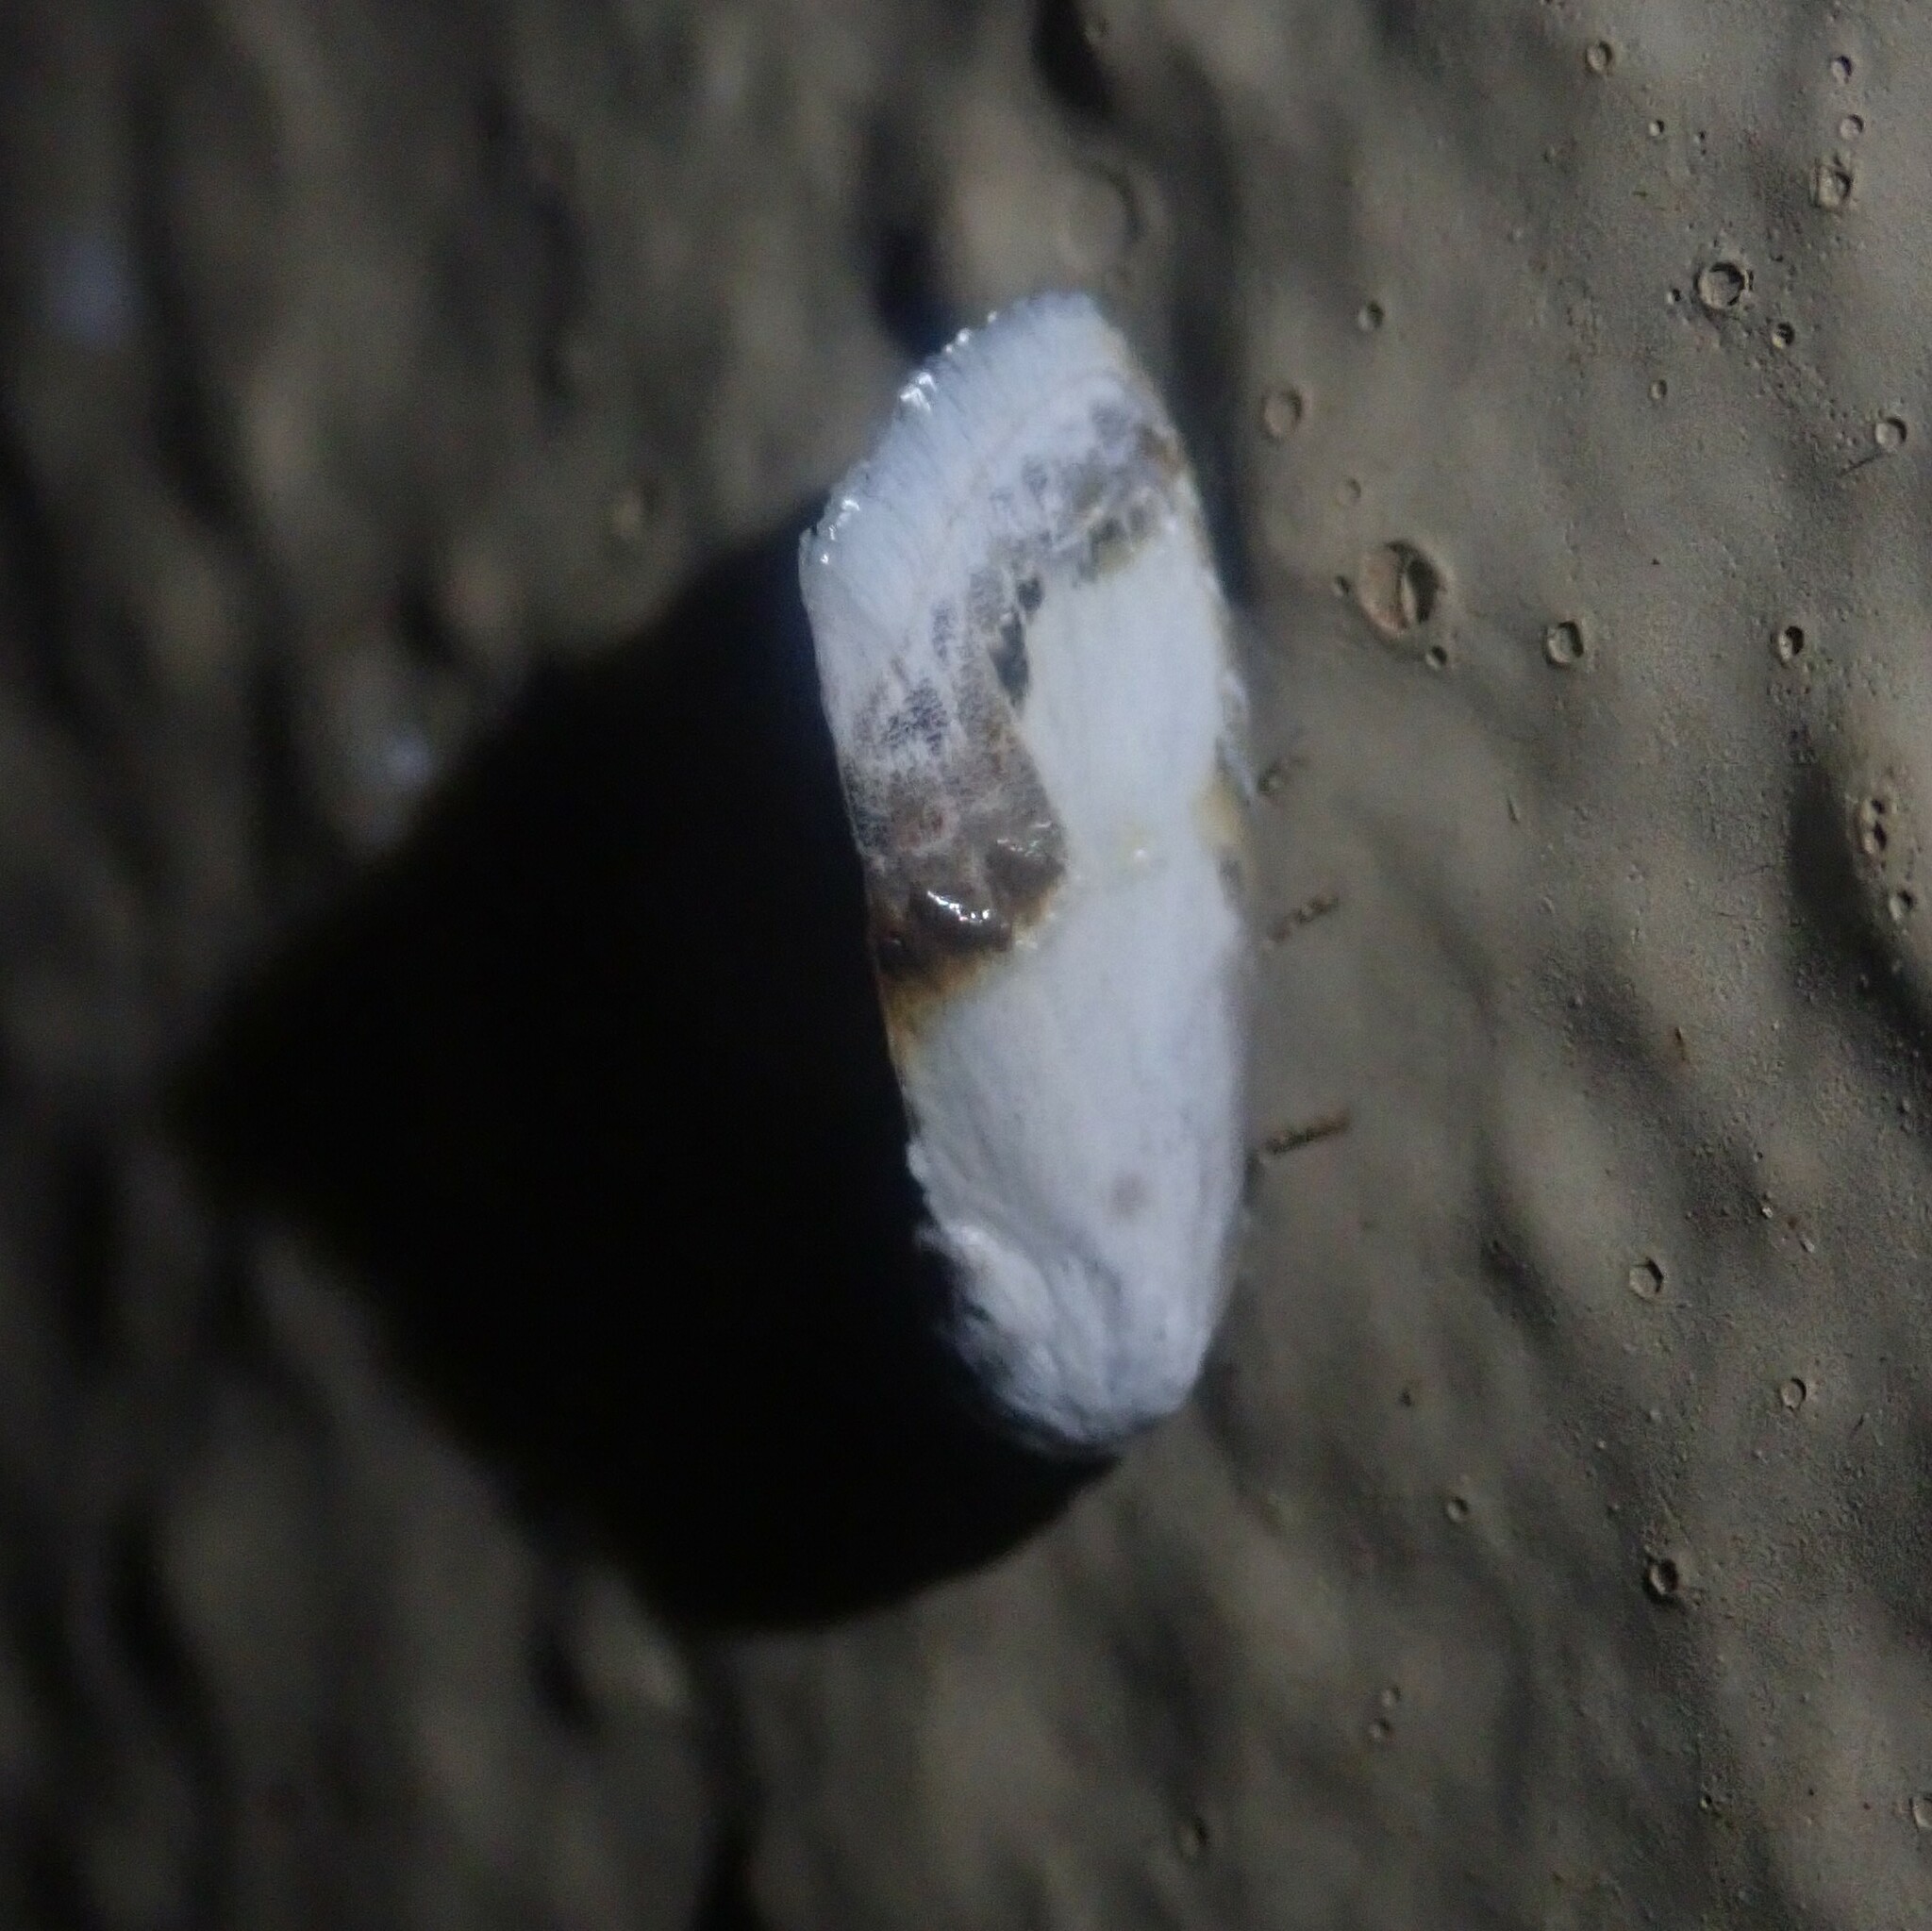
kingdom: Animalia
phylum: Arthropoda
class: Insecta
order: Lepidoptera
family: Nolidae
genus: Negeta
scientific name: Negeta luminosa
